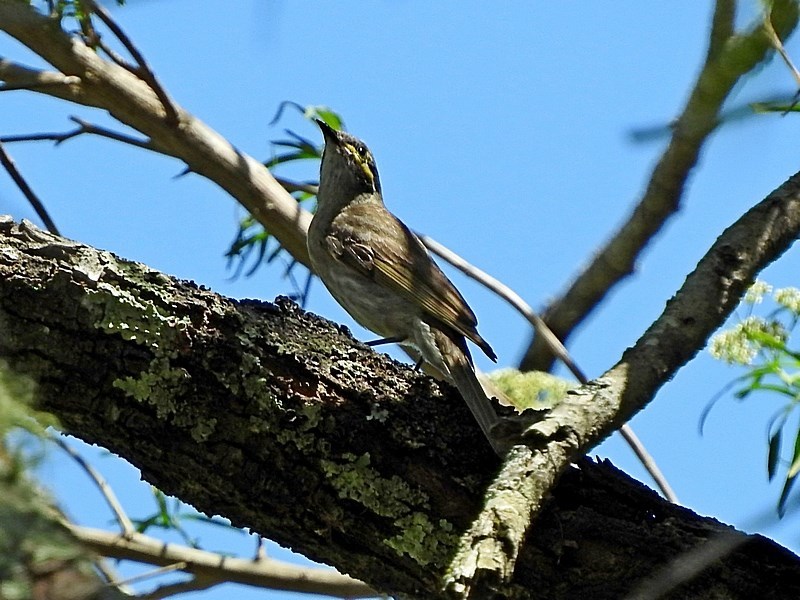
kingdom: Animalia
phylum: Chordata
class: Aves
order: Passeriformes
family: Meliphagidae
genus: Caligavis
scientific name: Caligavis chrysops
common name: Yellow-faced honeyeater
